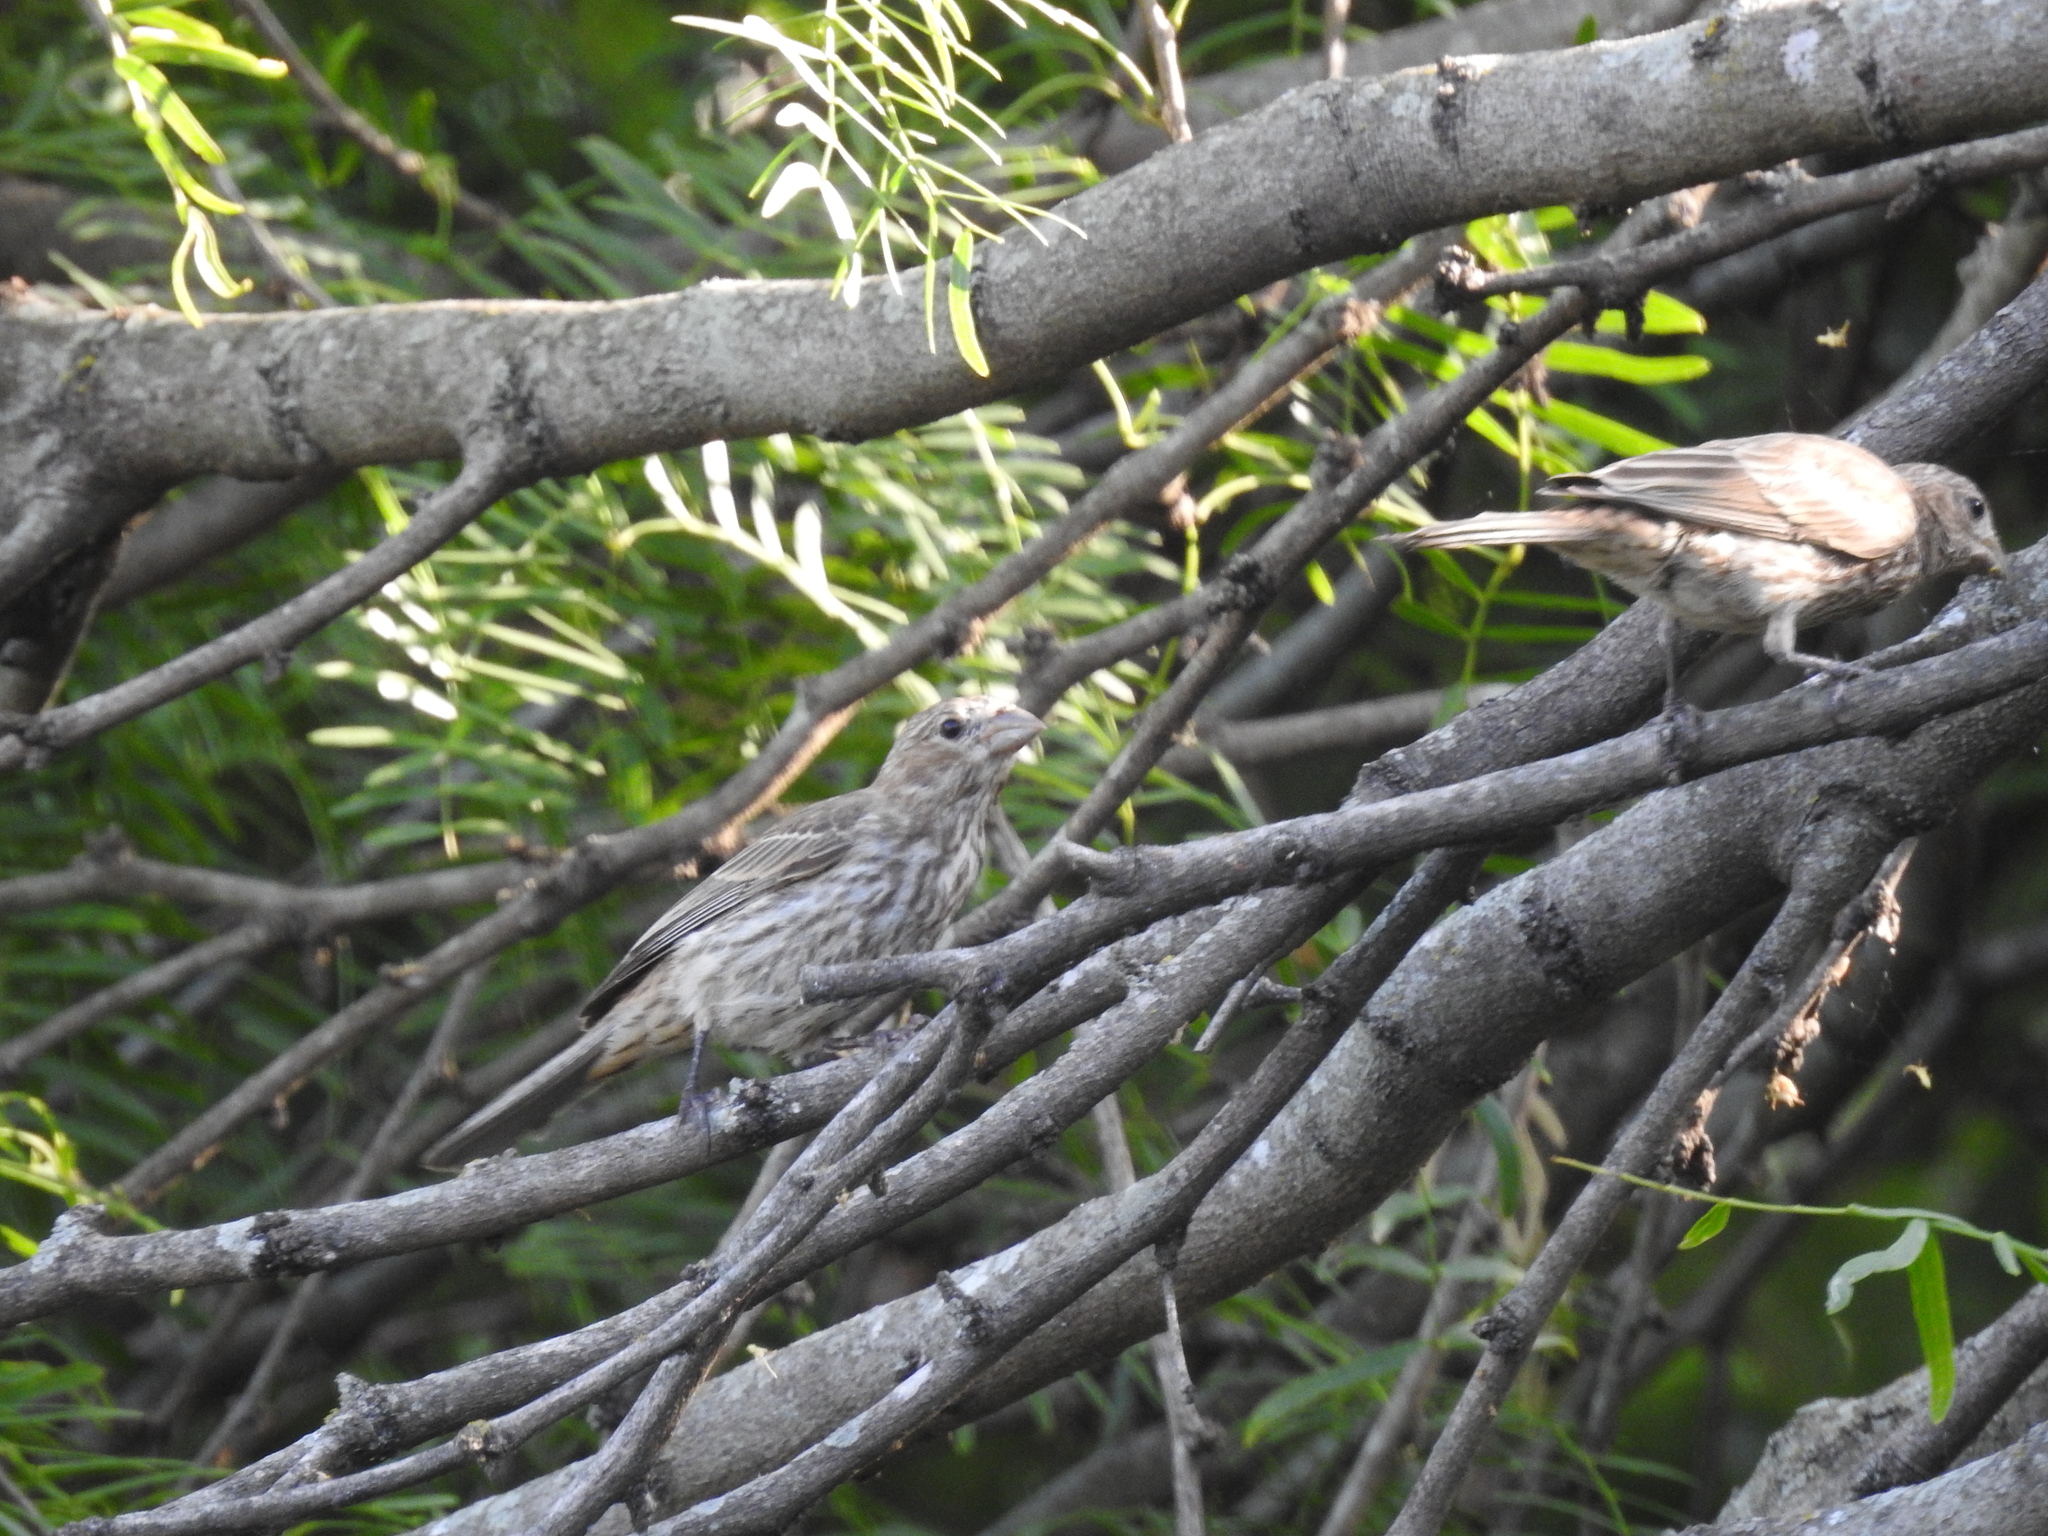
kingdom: Animalia
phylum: Chordata
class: Aves
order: Passeriformes
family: Fringillidae
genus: Haemorhous
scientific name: Haemorhous mexicanus
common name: House finch
